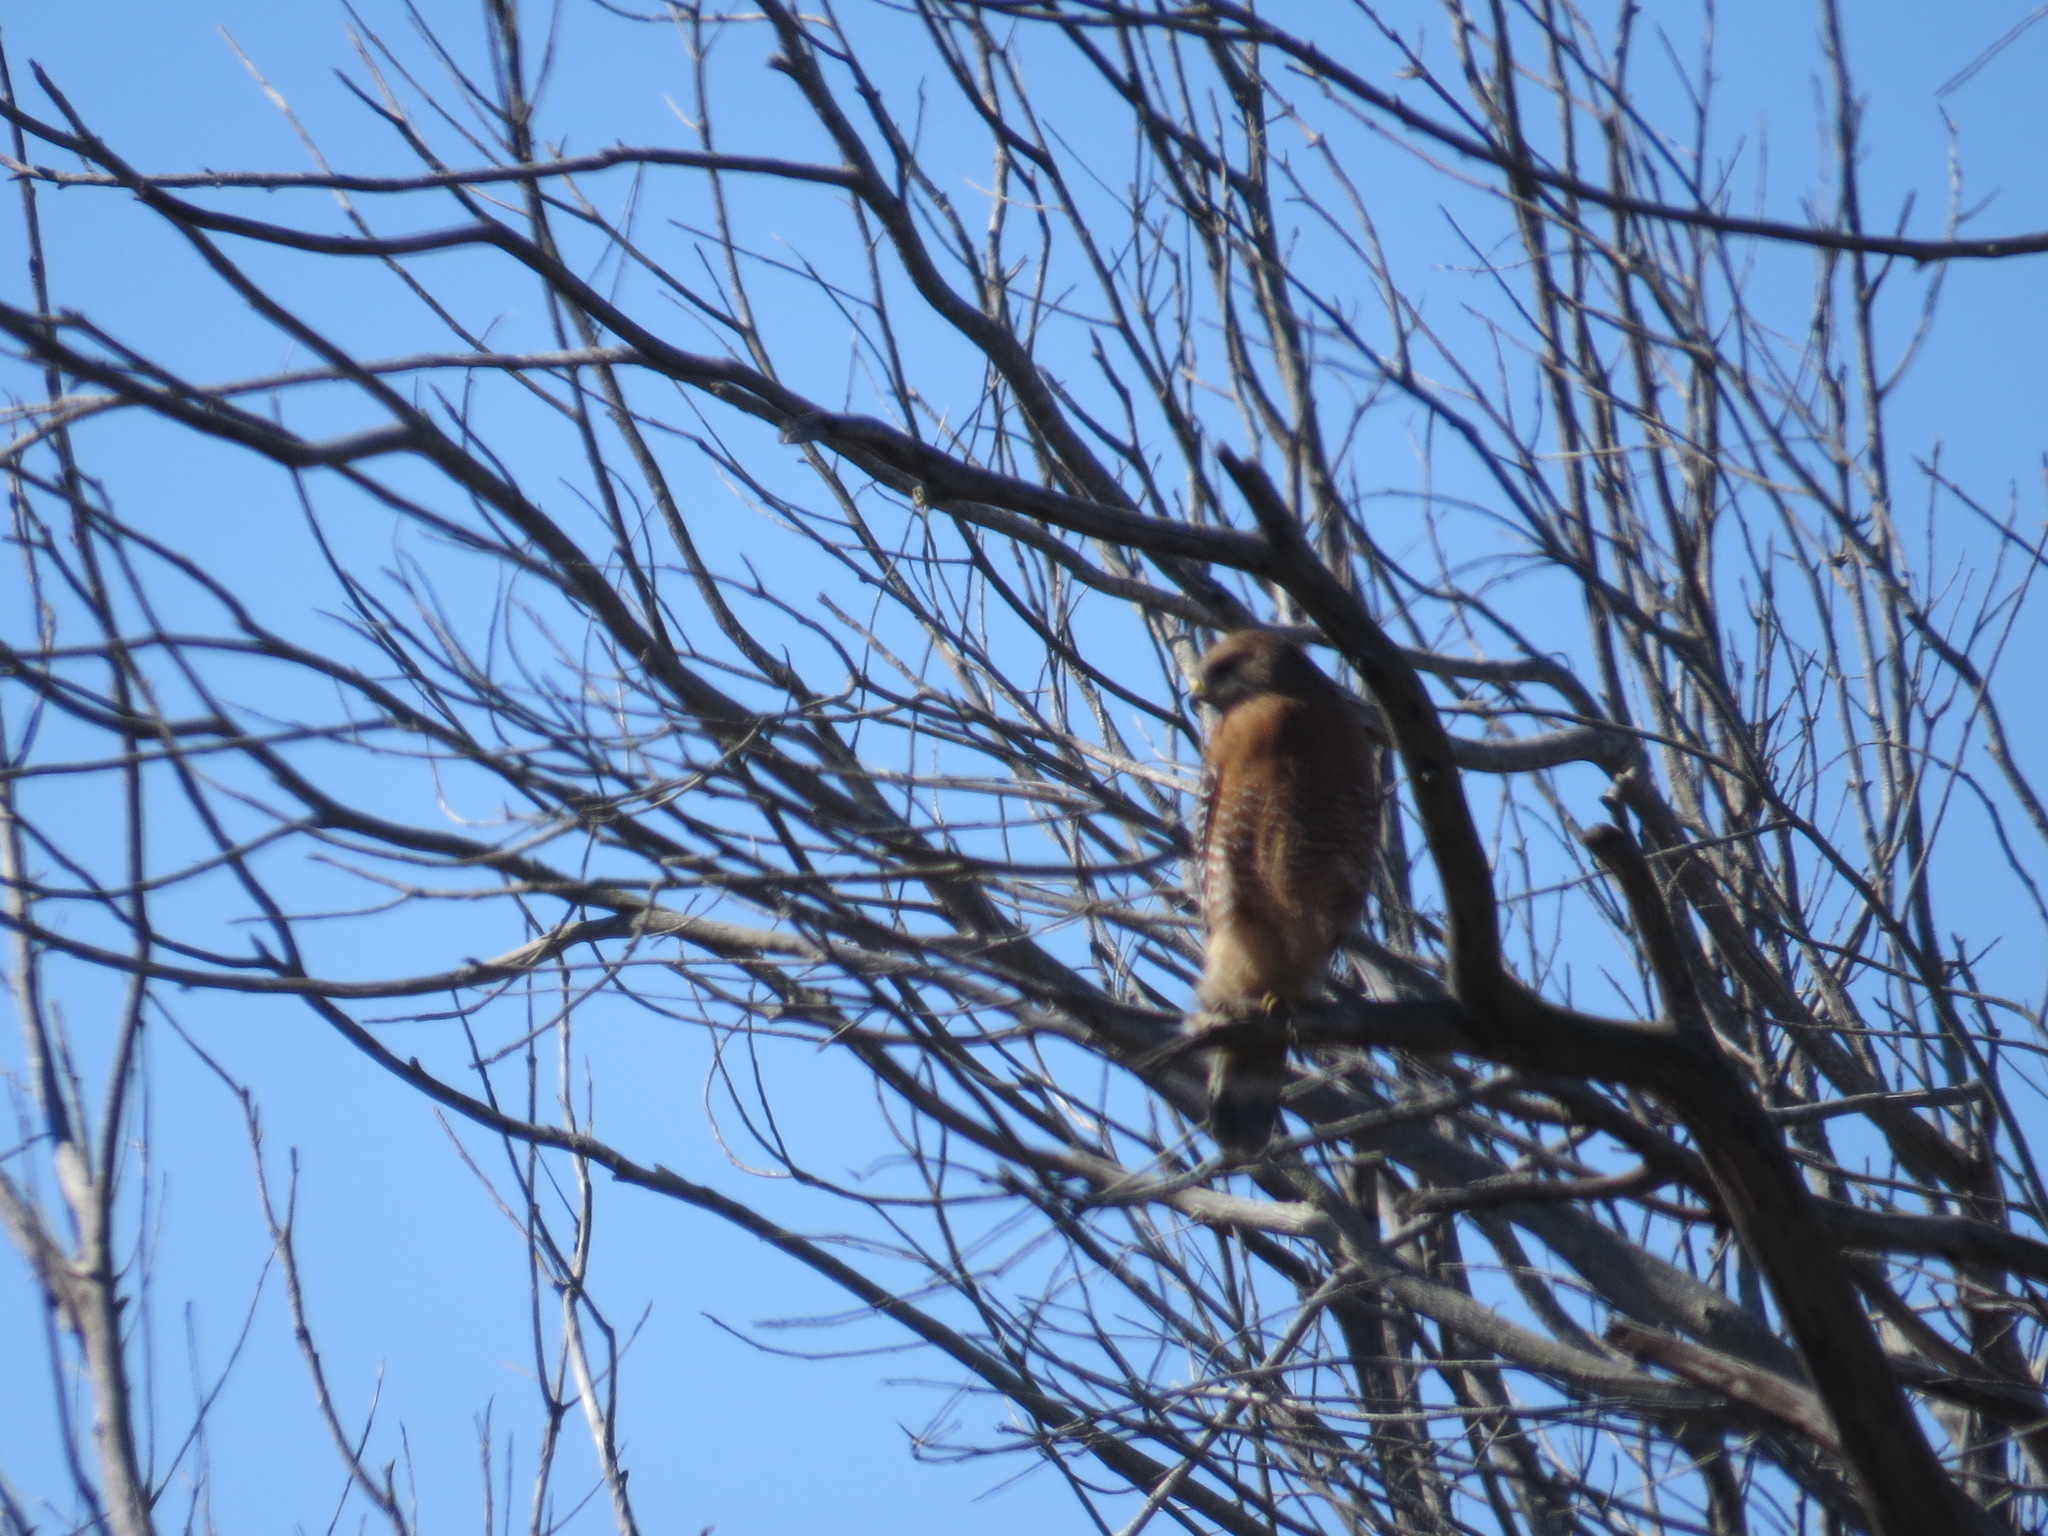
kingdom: Animalia
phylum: Chordata
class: Aves
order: Accipitriformes
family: Accipitridae
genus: Buteo
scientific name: Buteo lineatus
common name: Red-shouldered hawk
